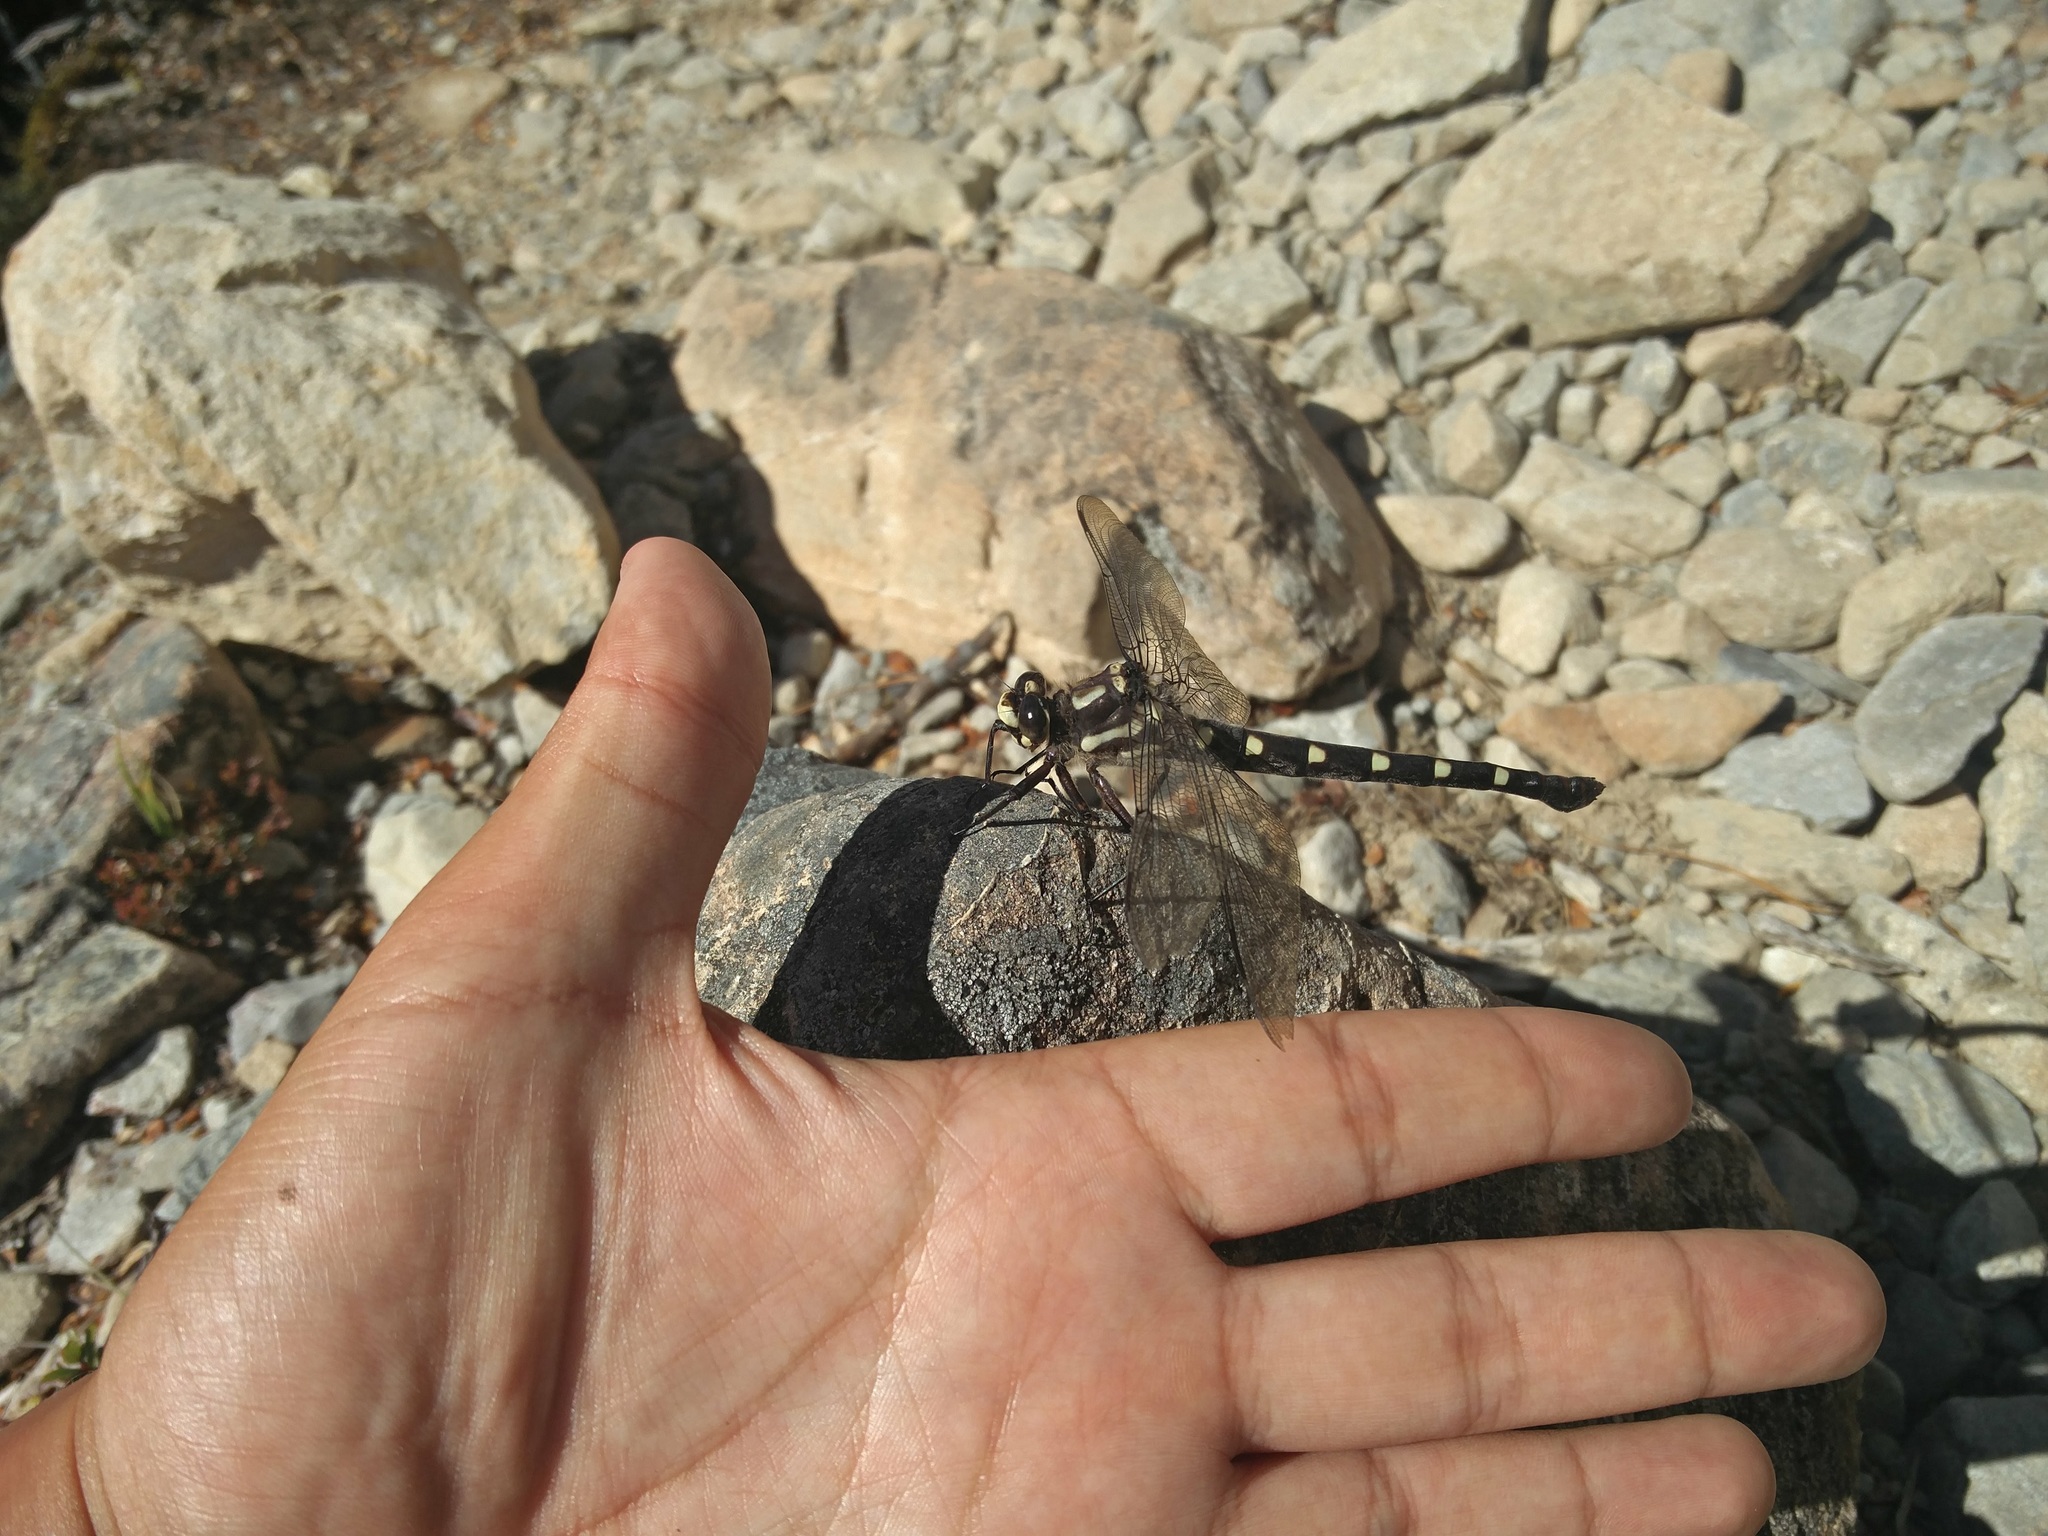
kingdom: Animalia
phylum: Arthropoda
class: Insecta
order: Odonata
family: Petaluridae
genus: Uropetala
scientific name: Uropetala chiltoni
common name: Mountain giant dragonfly
